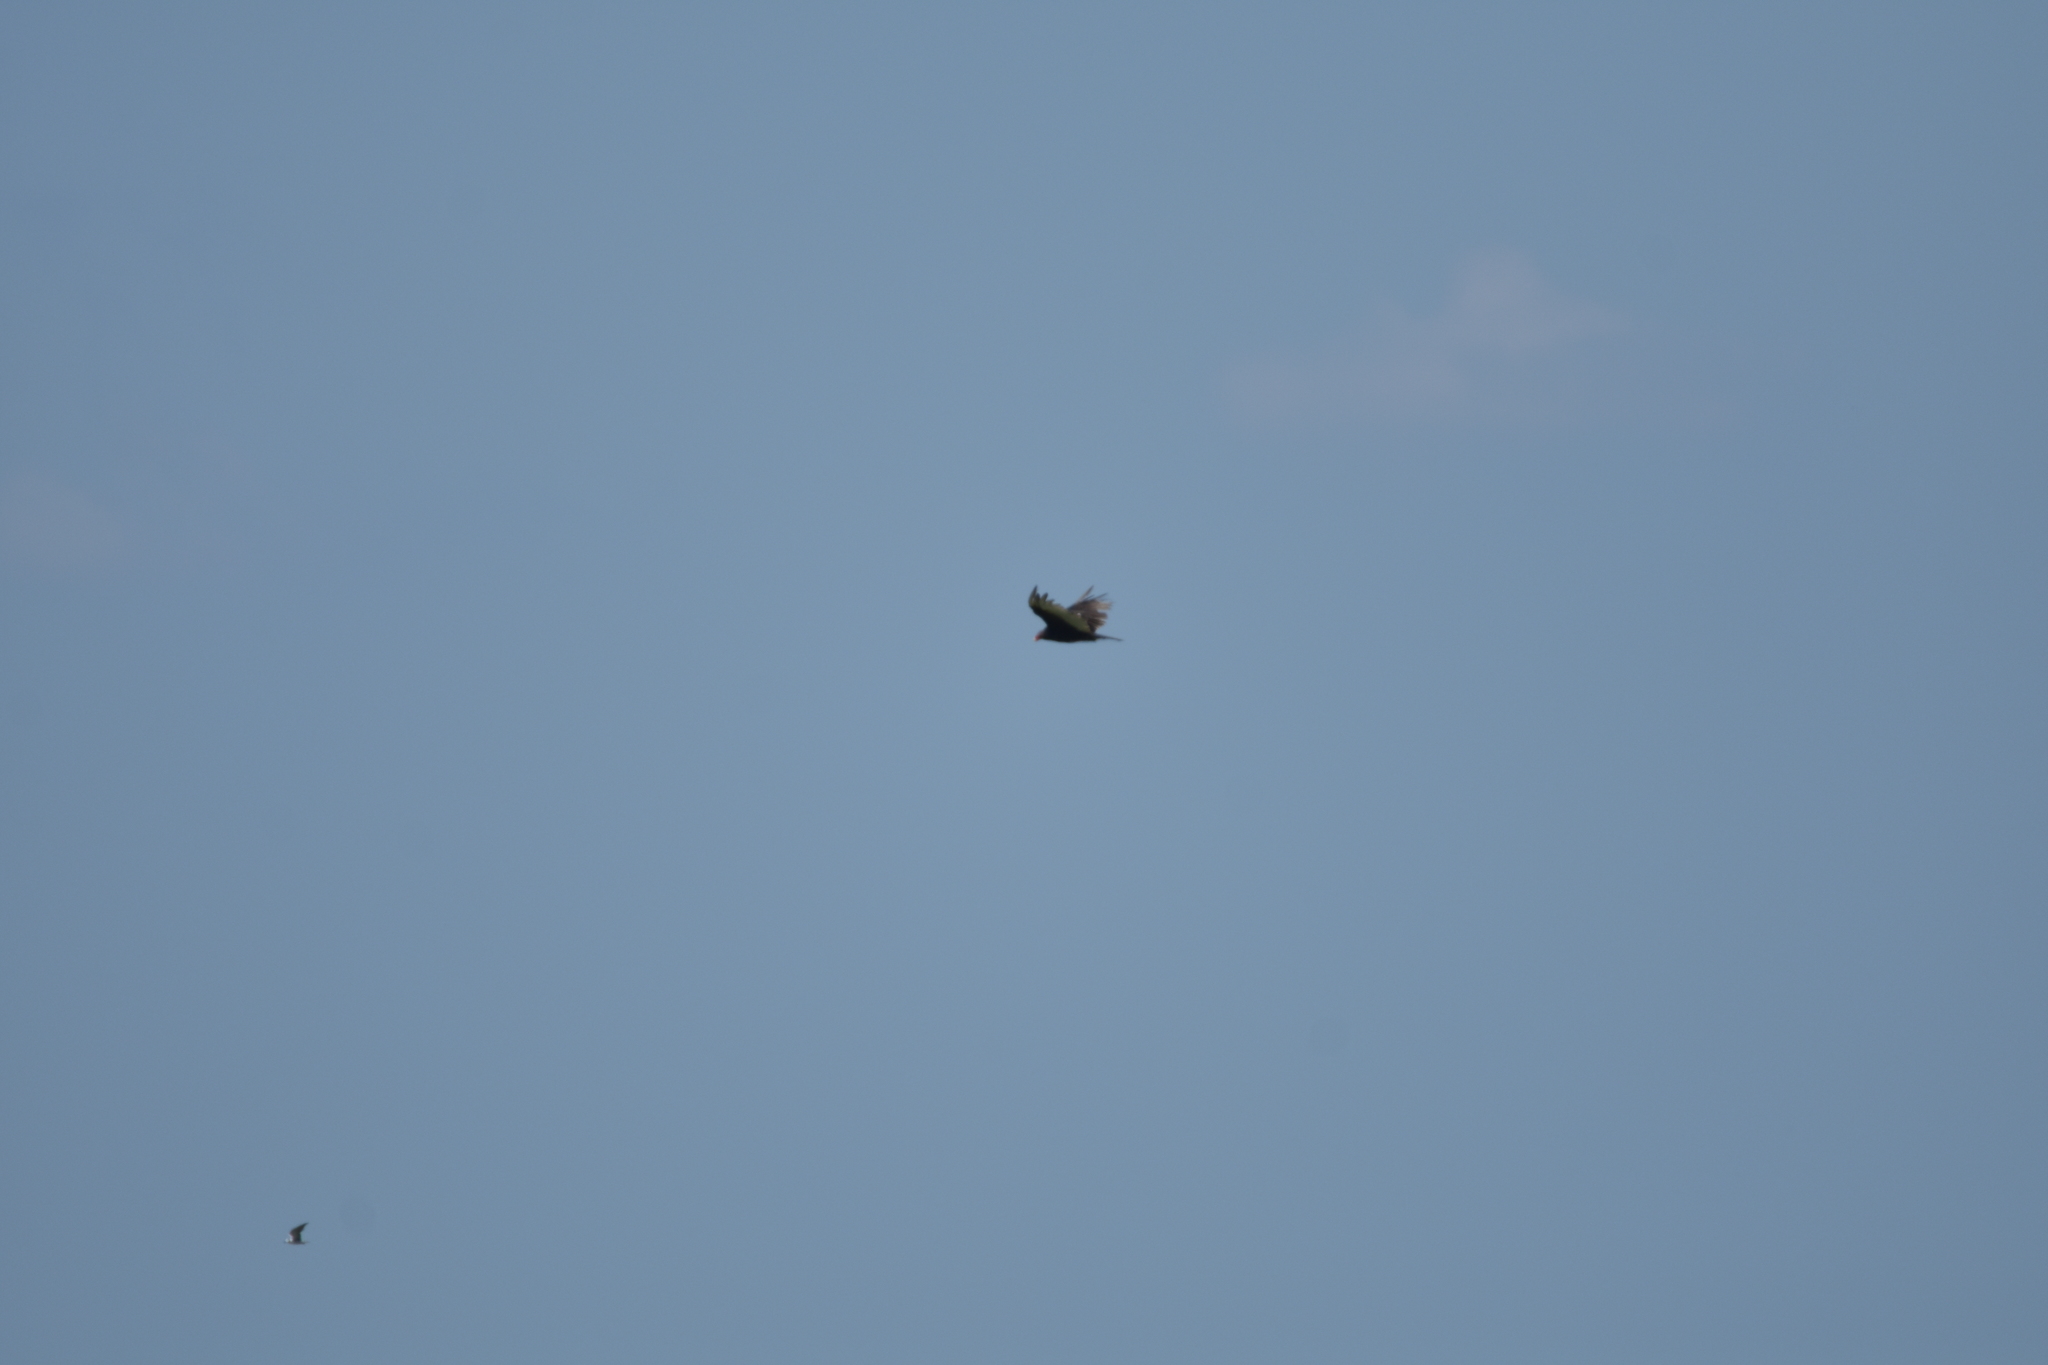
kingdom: Animalia
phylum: Chordata
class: Aves
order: Accipitriformes
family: Cathartidae
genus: Cathartes
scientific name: Cathartes aura
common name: Turkey vulture
